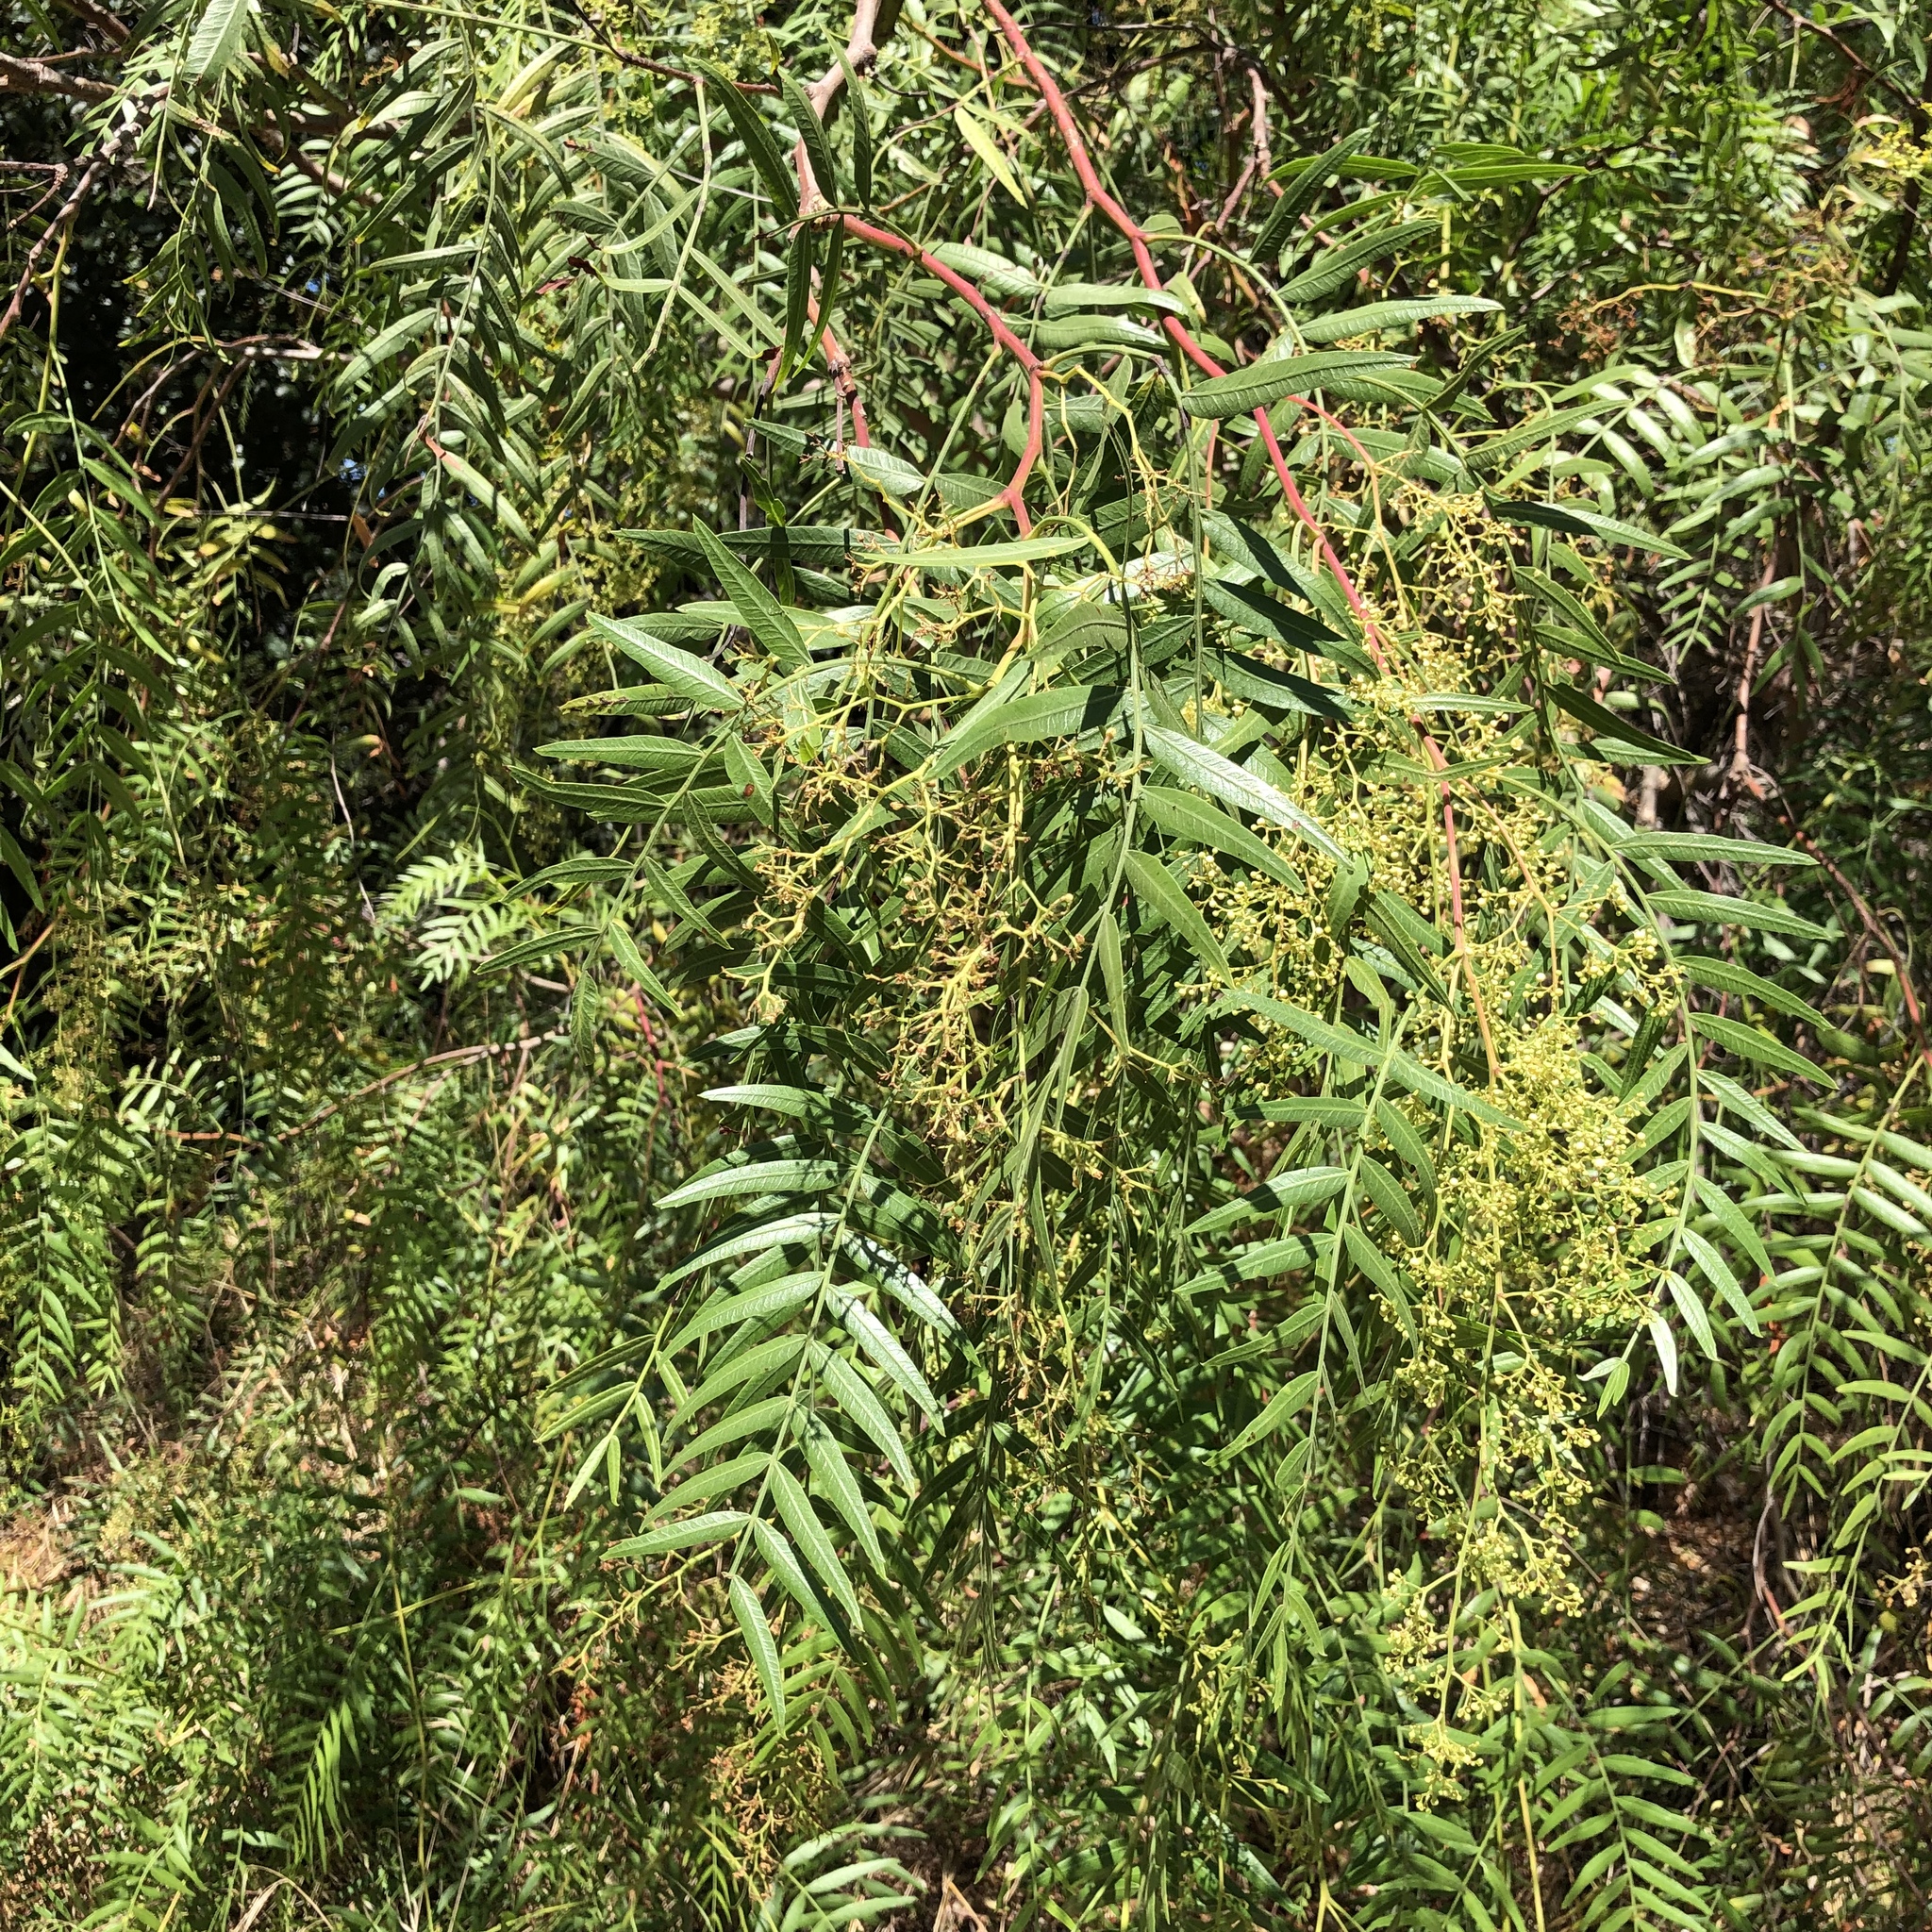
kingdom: Plantae
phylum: Tracheophyta
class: Magnoliopsida
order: Sapindales
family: Anacardiaceae
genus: Schinus
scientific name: Schinus molle
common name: Peruvian peppertree
